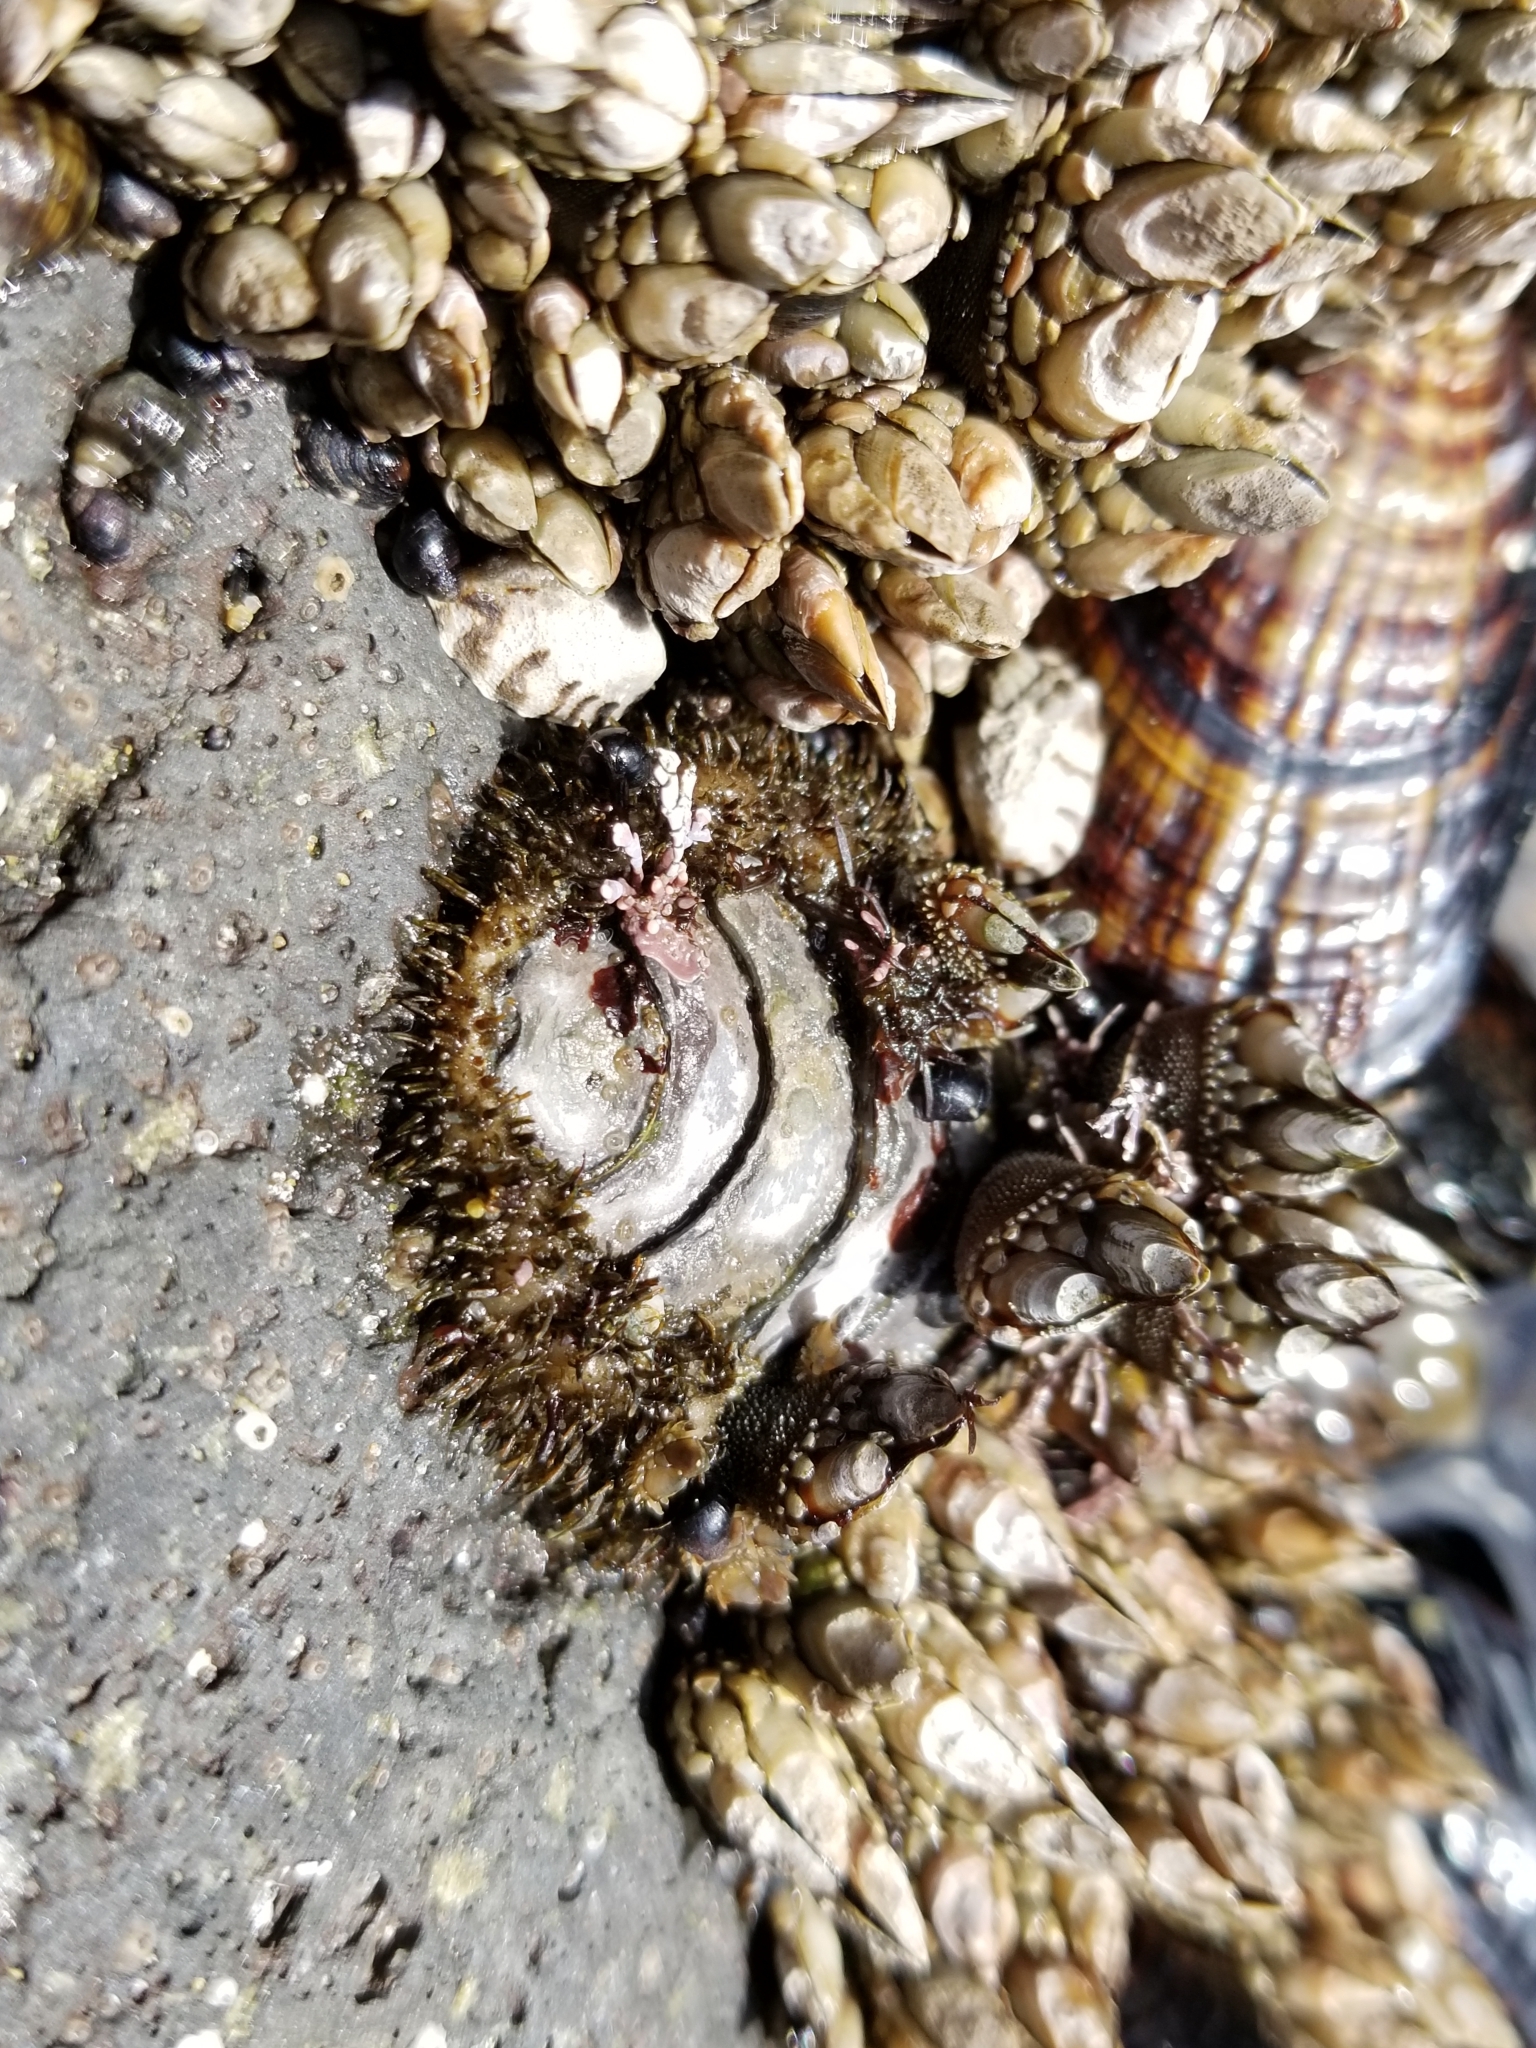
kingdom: Animalia
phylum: Mollusca
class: Polyplacophora
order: Chitonida
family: Mopaliidae
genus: Mopalia
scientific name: Mopalia muscosa
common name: Mossy chiton
